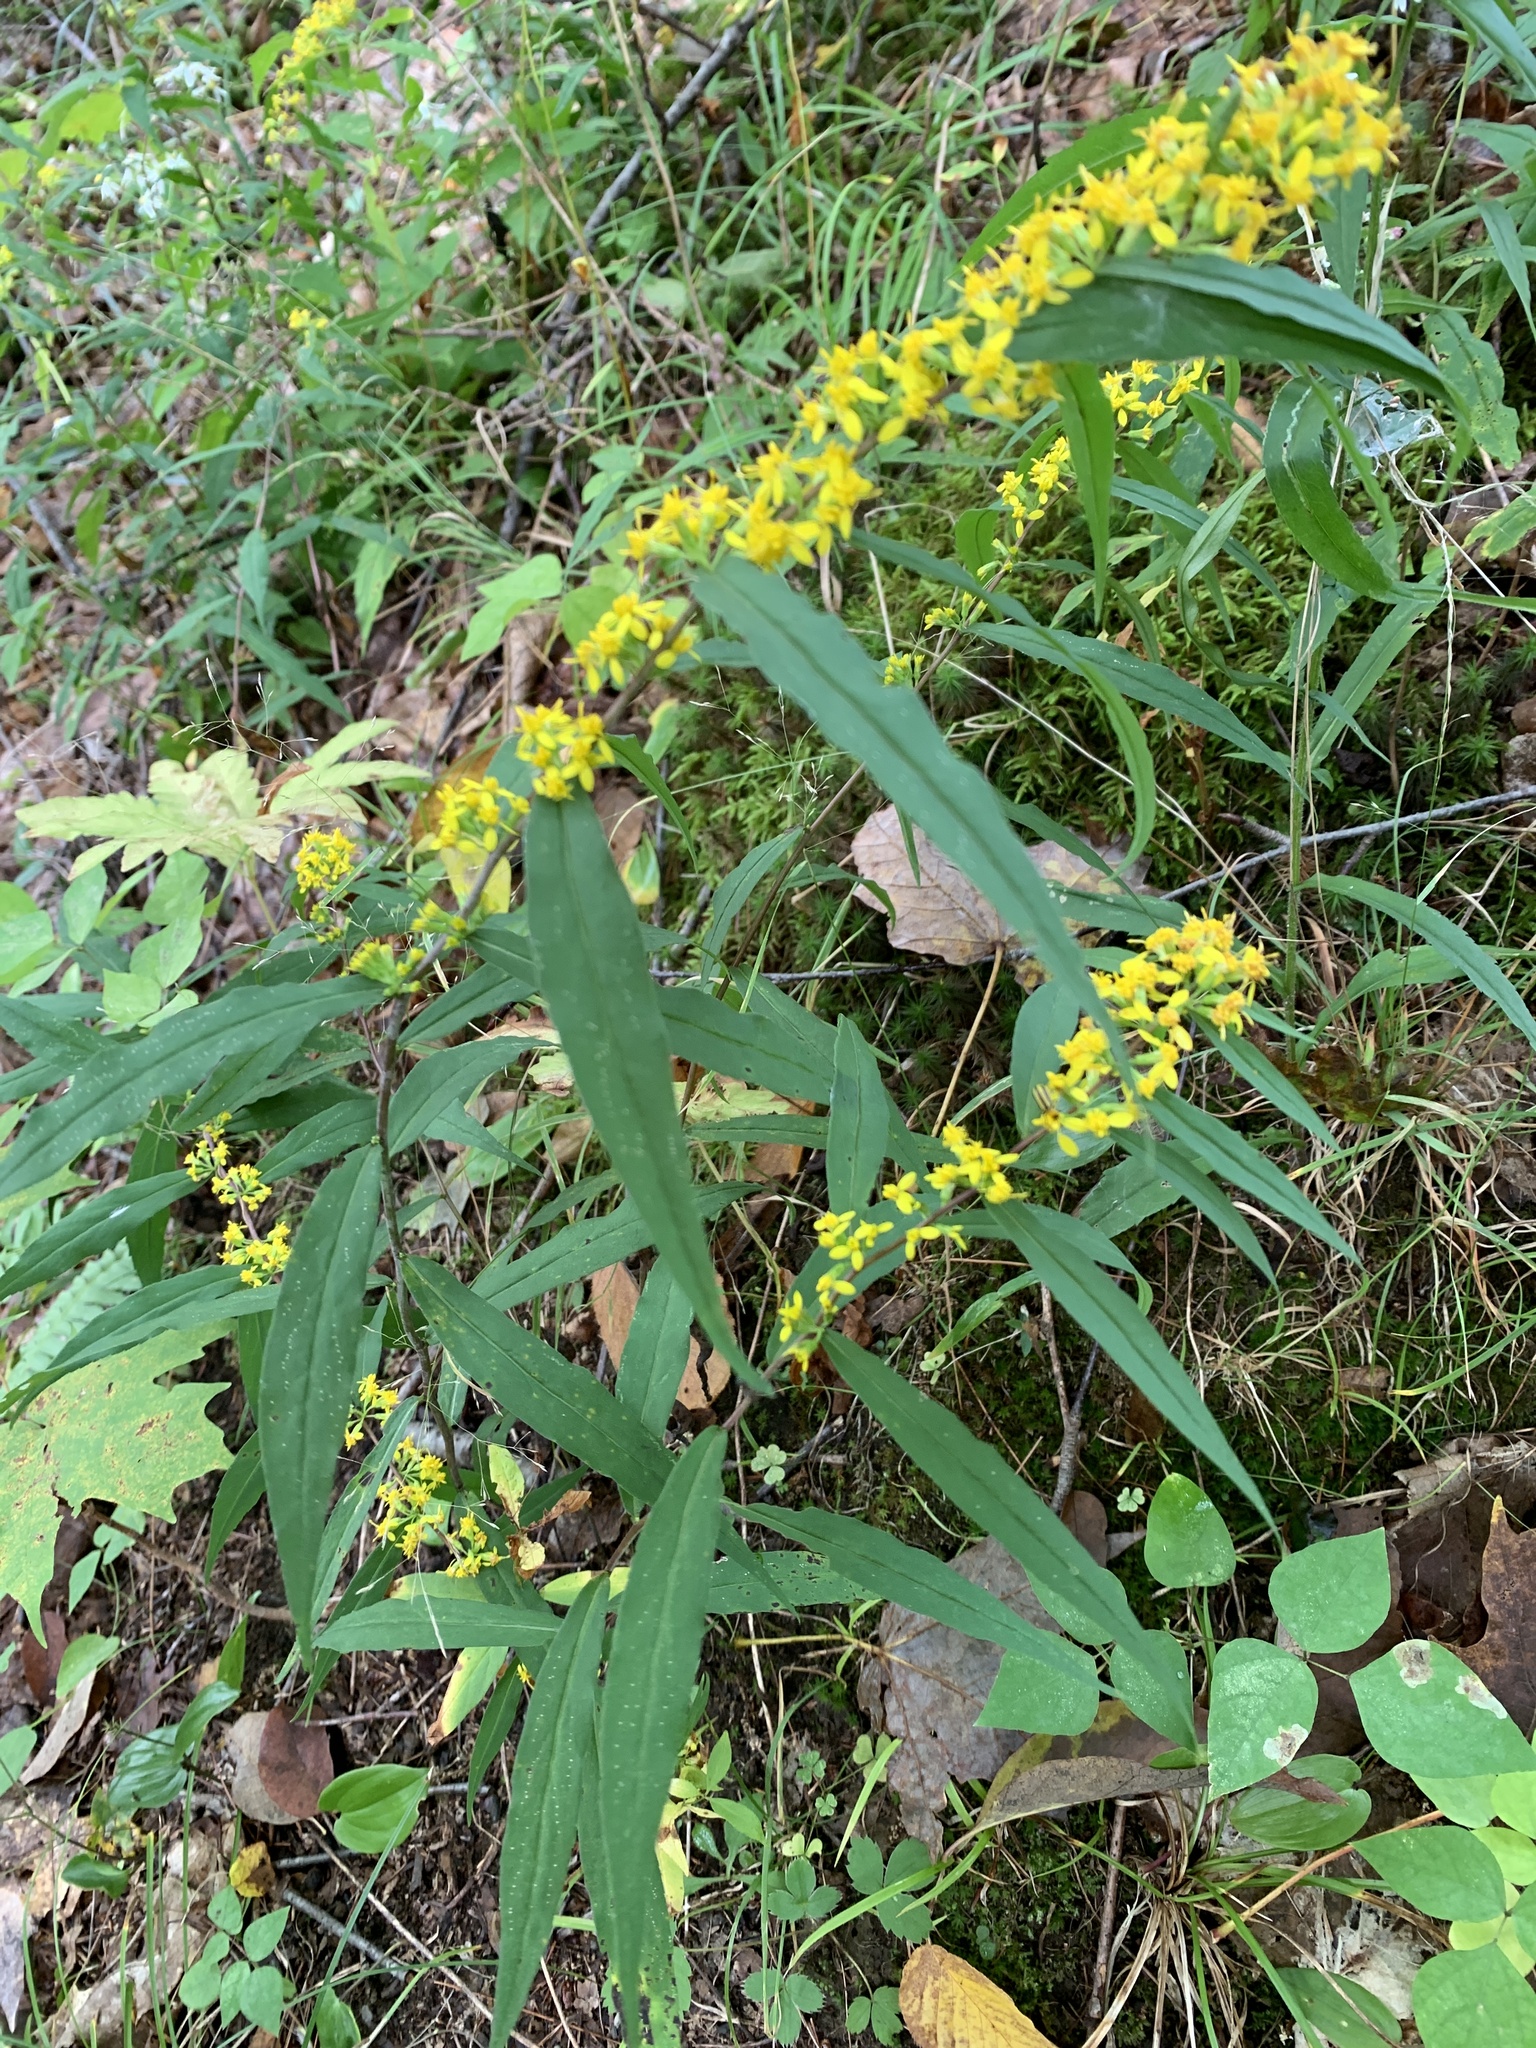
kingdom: Plantae
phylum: Tracheophyta
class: Magnoliopsida
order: Asterales
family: Asteraceae
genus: Solidago
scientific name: Solidago caesia
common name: Woodland goldenrod
